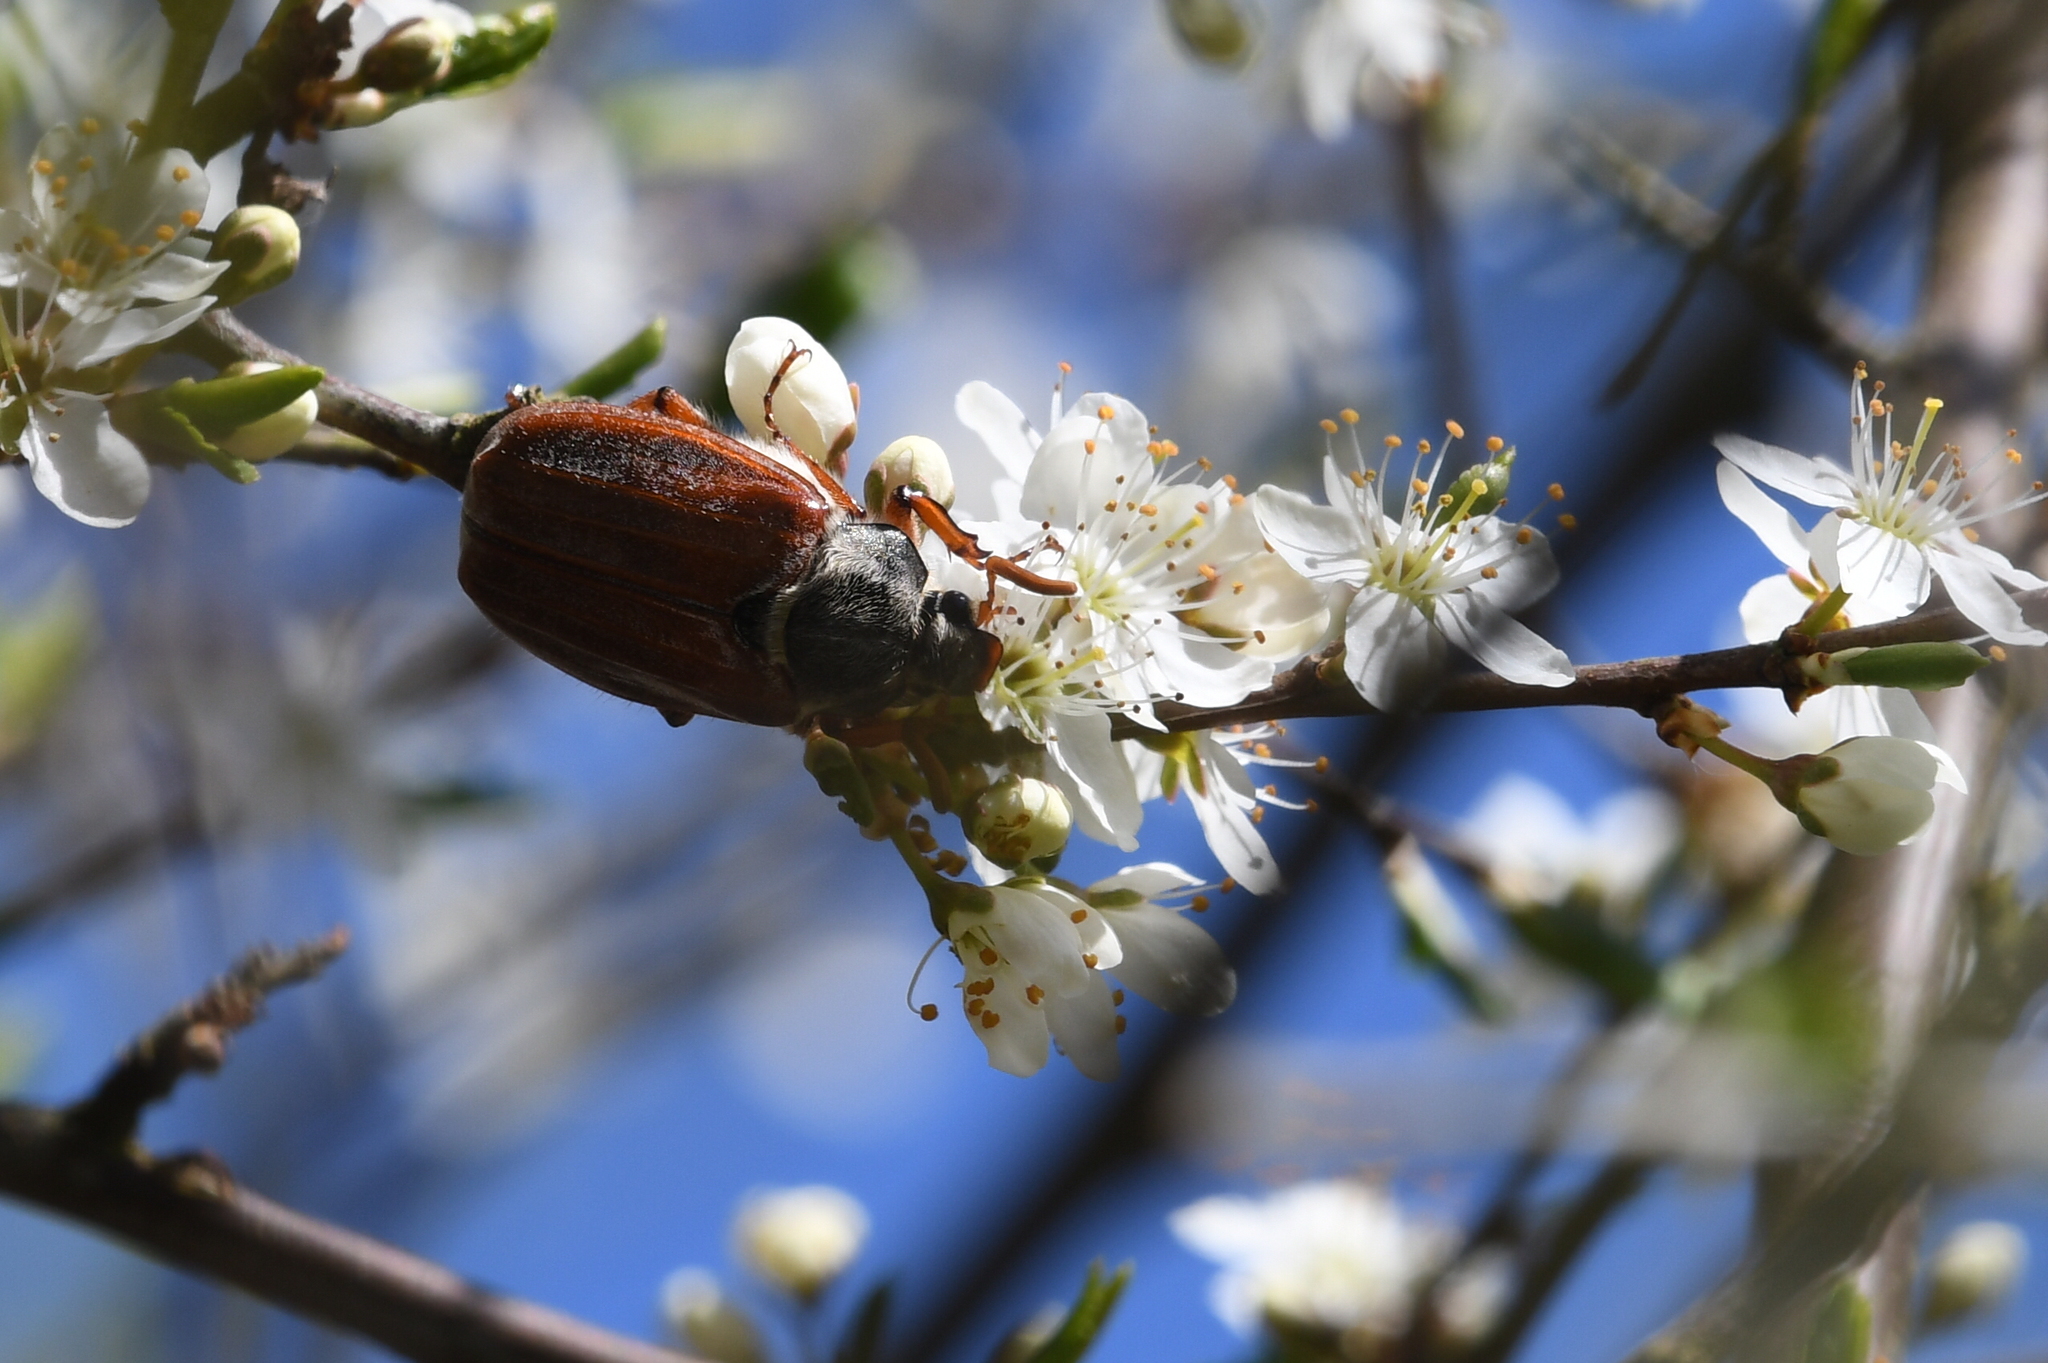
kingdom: Animalia
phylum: Arthropoda
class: Insecta
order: Coleoptera
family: Scarabaeidae
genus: Melolontha
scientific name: Melolontha melolontha
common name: Cockchafer maybeetle
